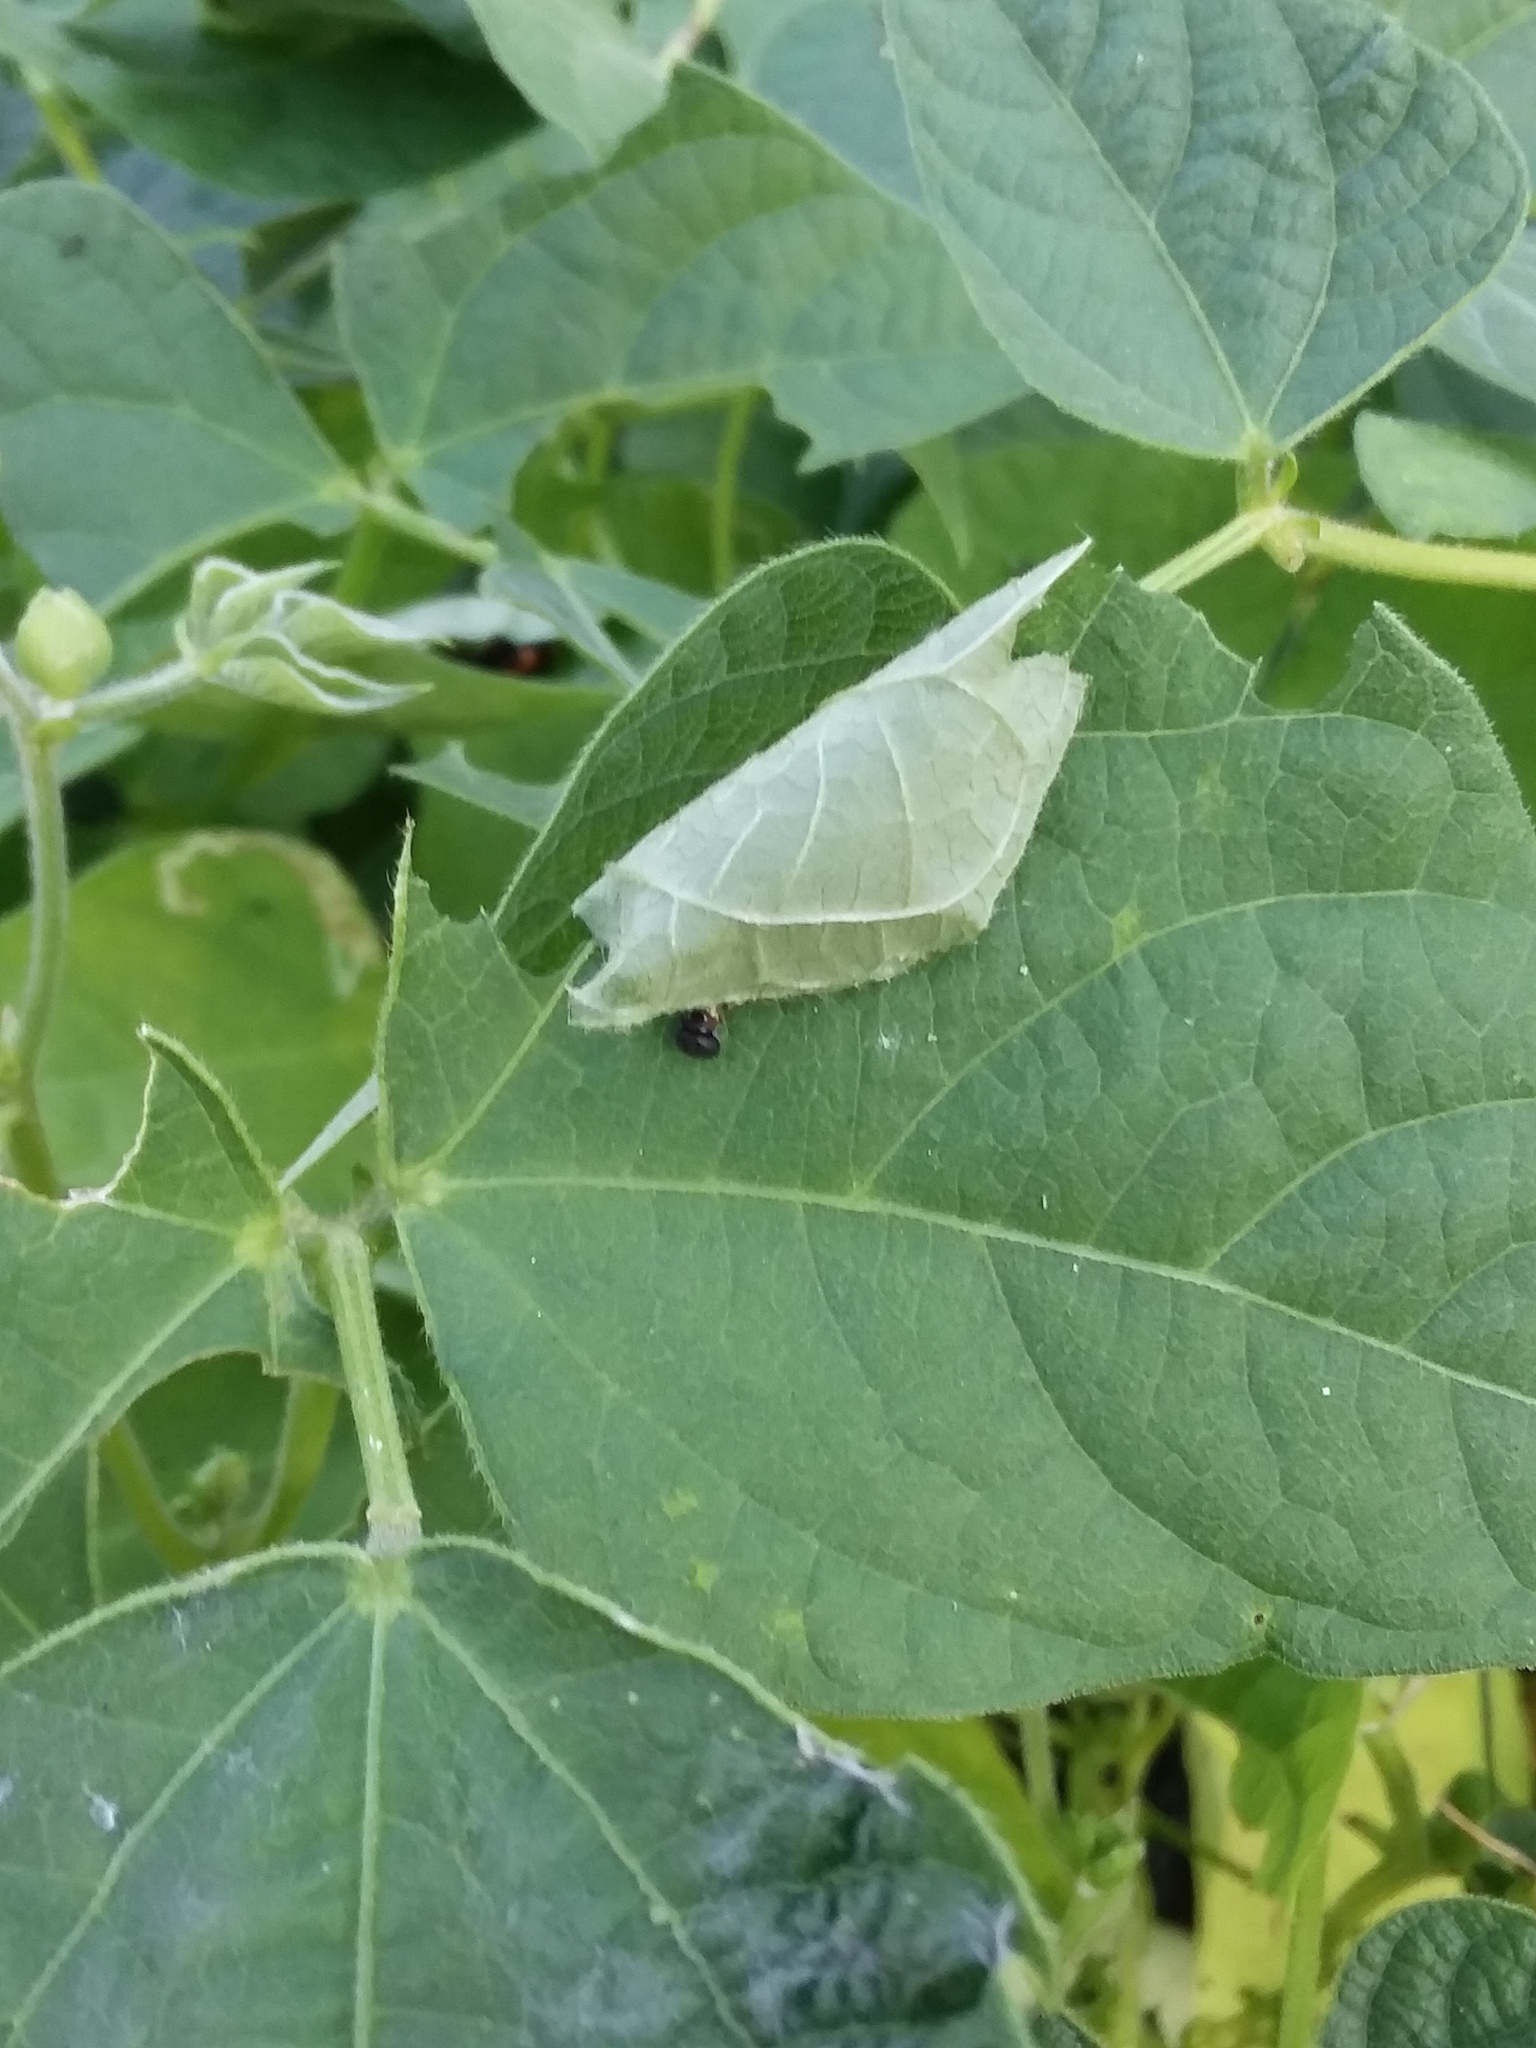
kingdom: Animalia
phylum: Arthropoda
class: Insecta
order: Lepidoptera
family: Hesperiidae
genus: Urbanus
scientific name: Urbanus proteus
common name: Long-tailed skipper
